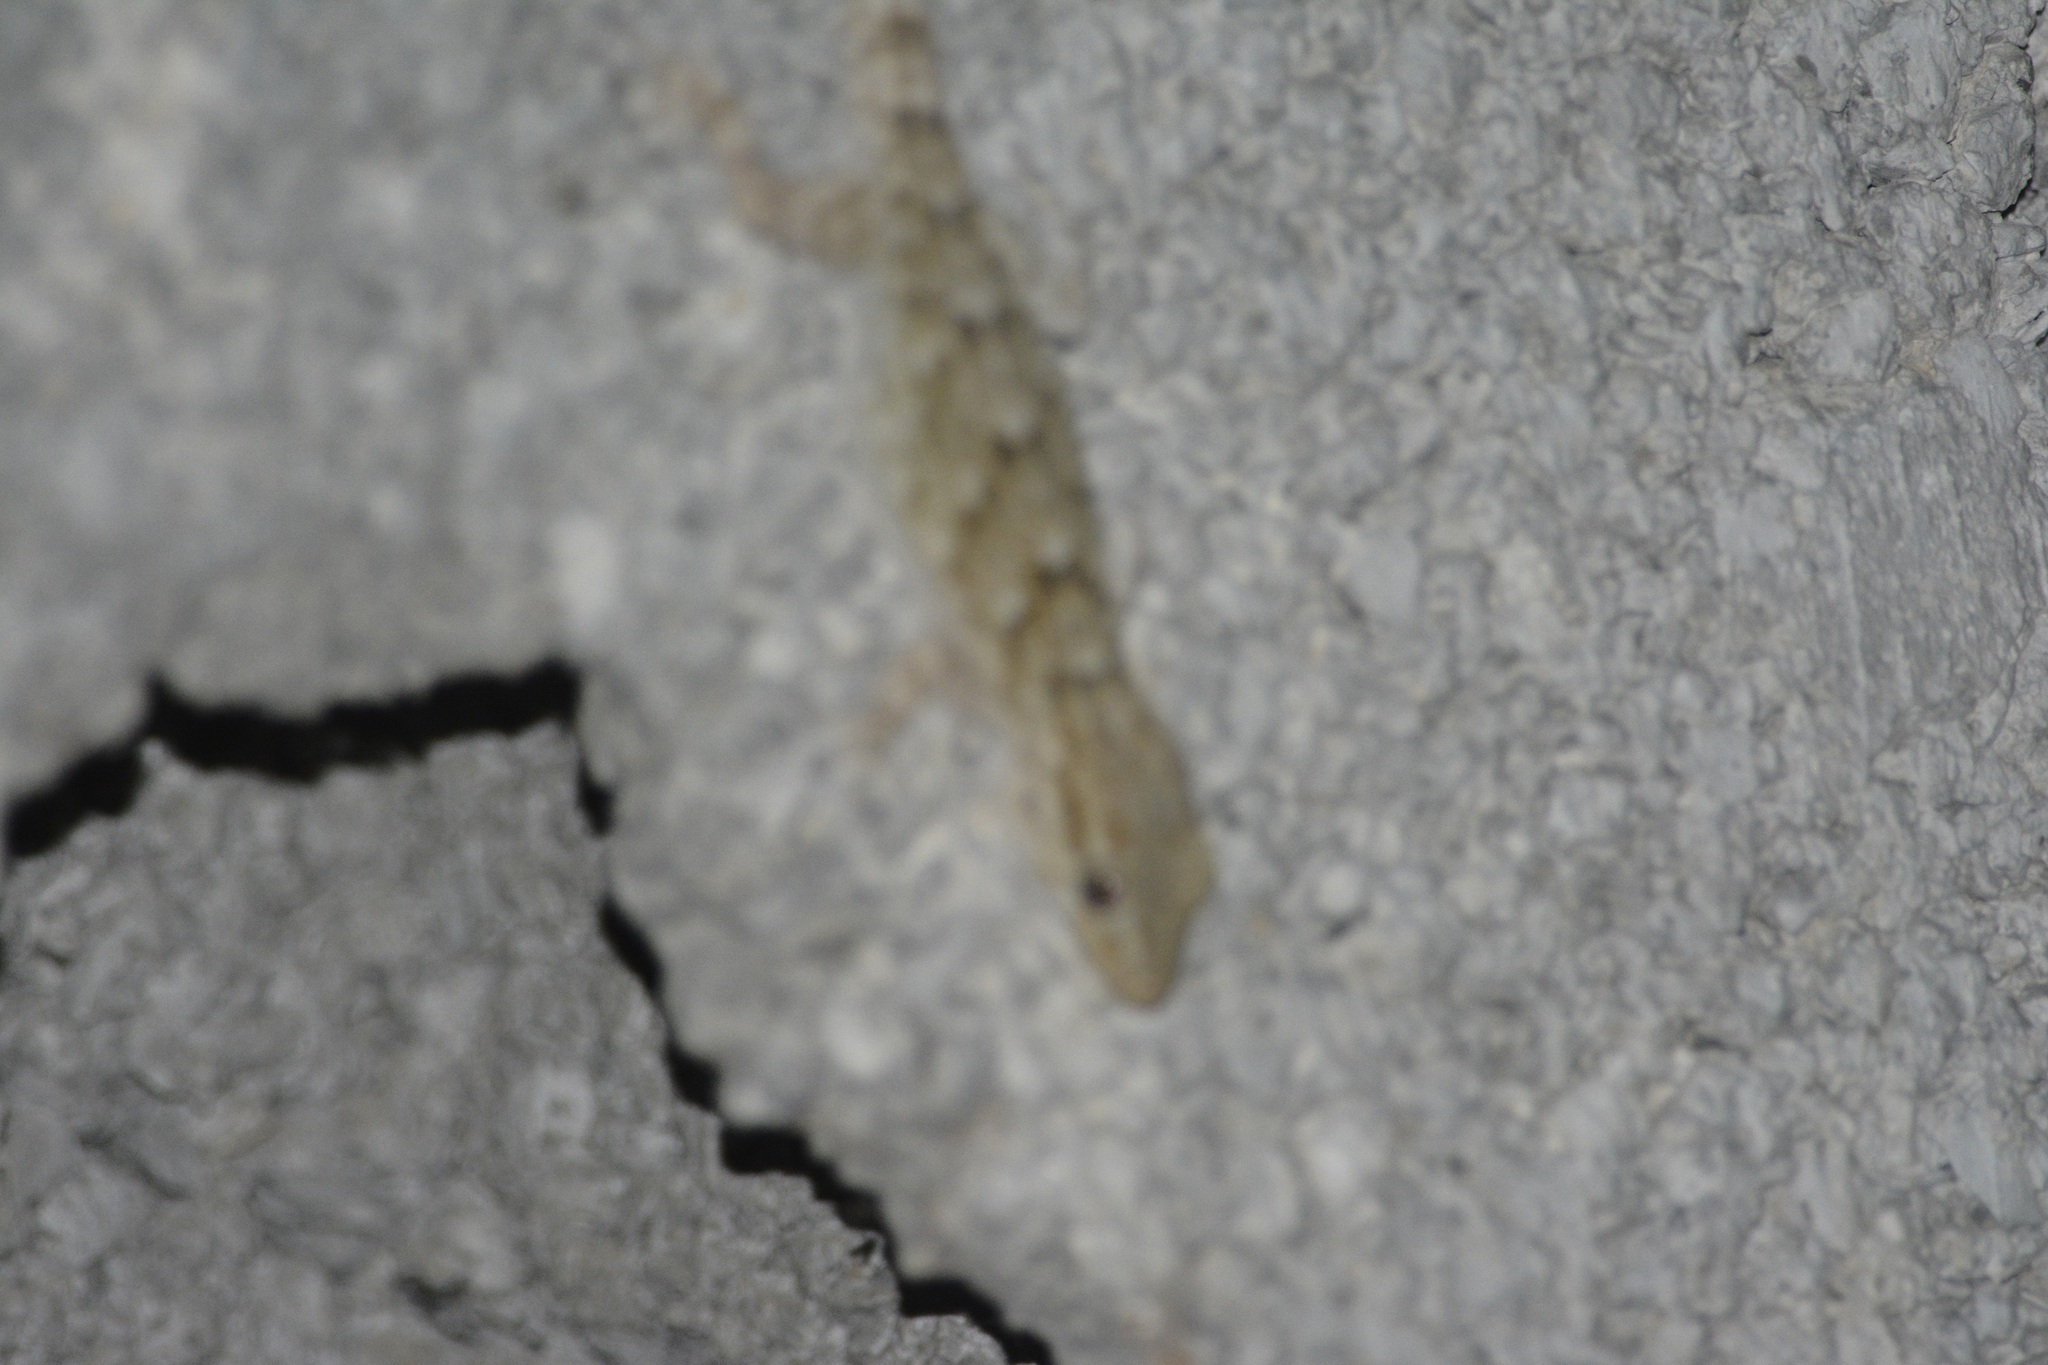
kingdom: Animalia
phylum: Chordata
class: Squamata
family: Phyllodactylidae
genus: Tarentola
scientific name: Tarentola mauritanica
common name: Moorish gecko
